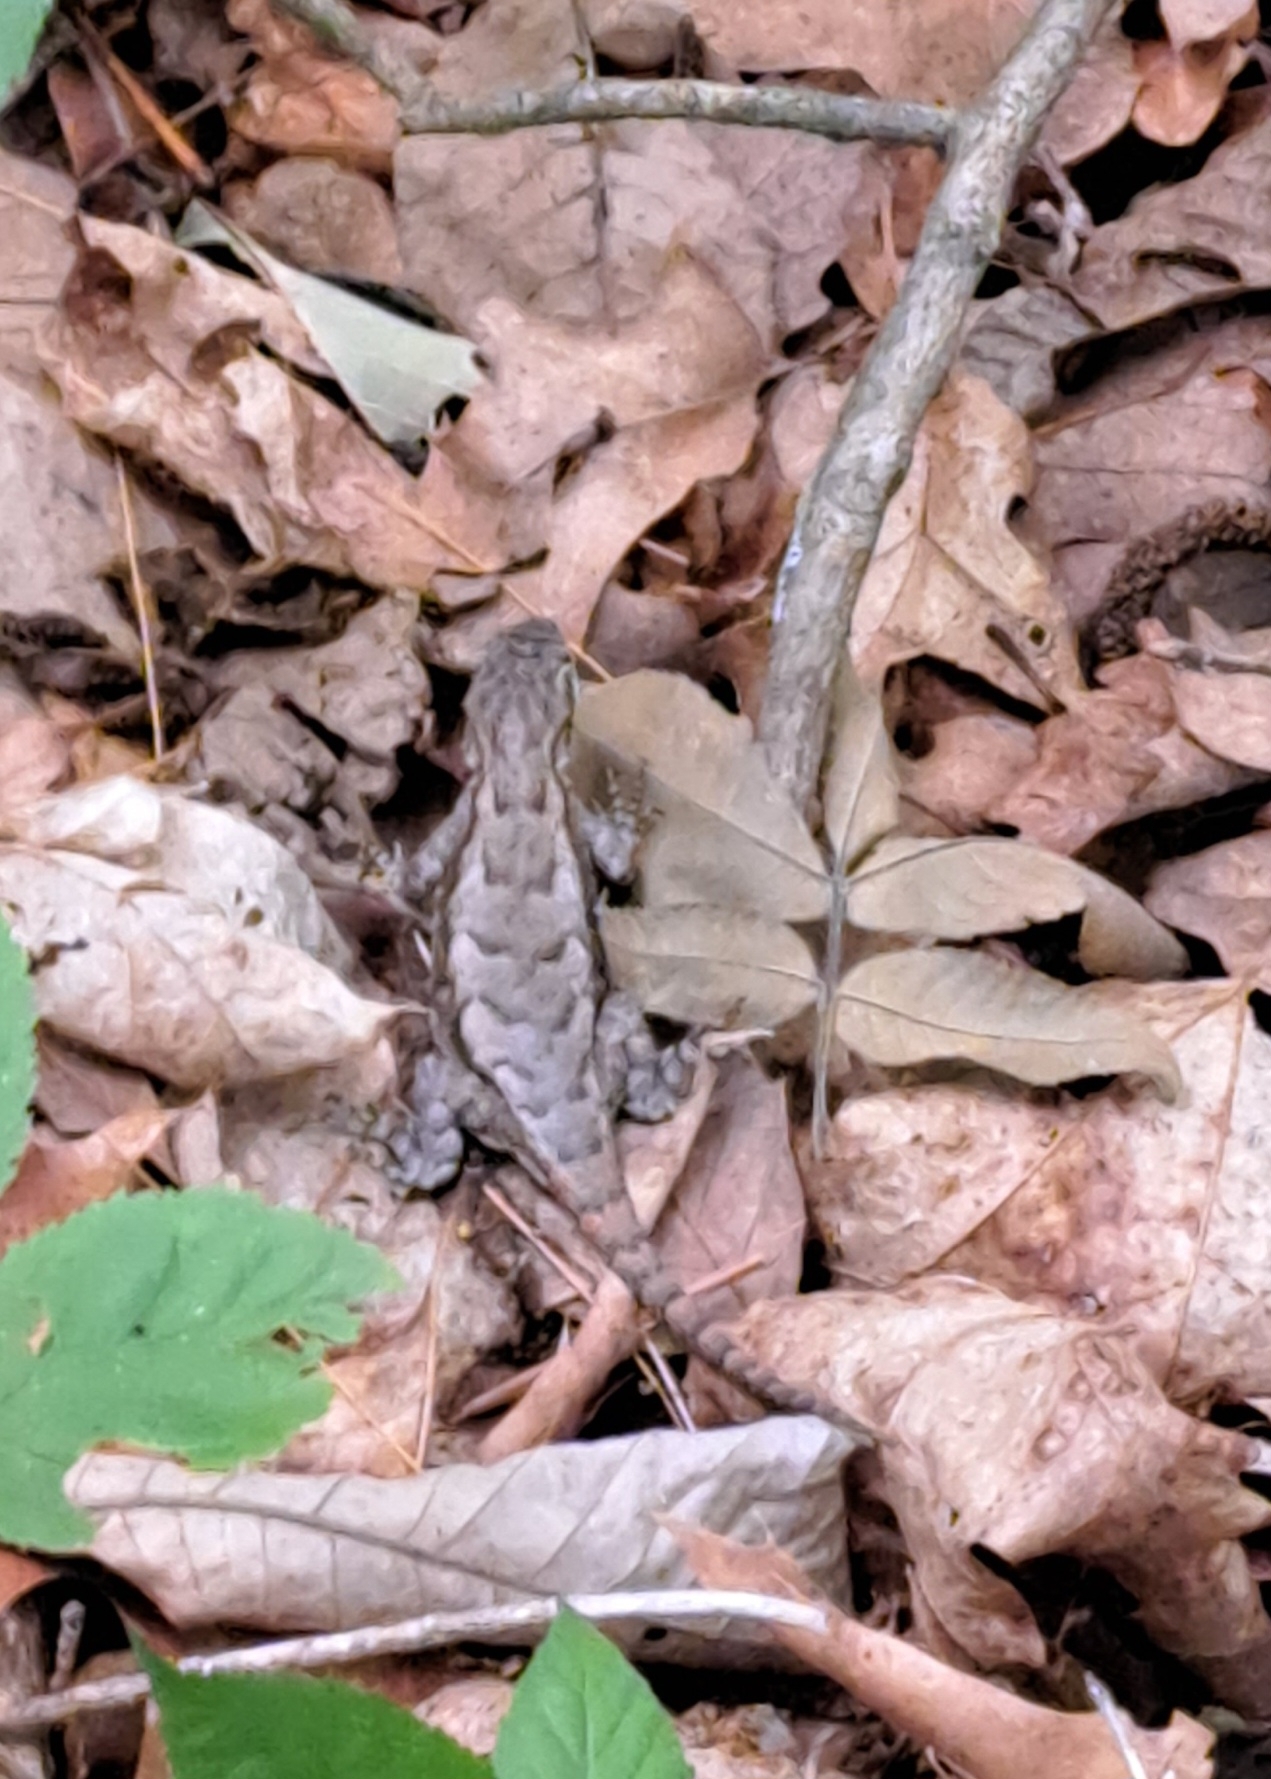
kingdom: Animalia
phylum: Chordata
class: Squamata
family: Phrynosomatidae
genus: Sceloporus
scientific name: Sceloporus undulatus
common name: Eastern fence lizard
